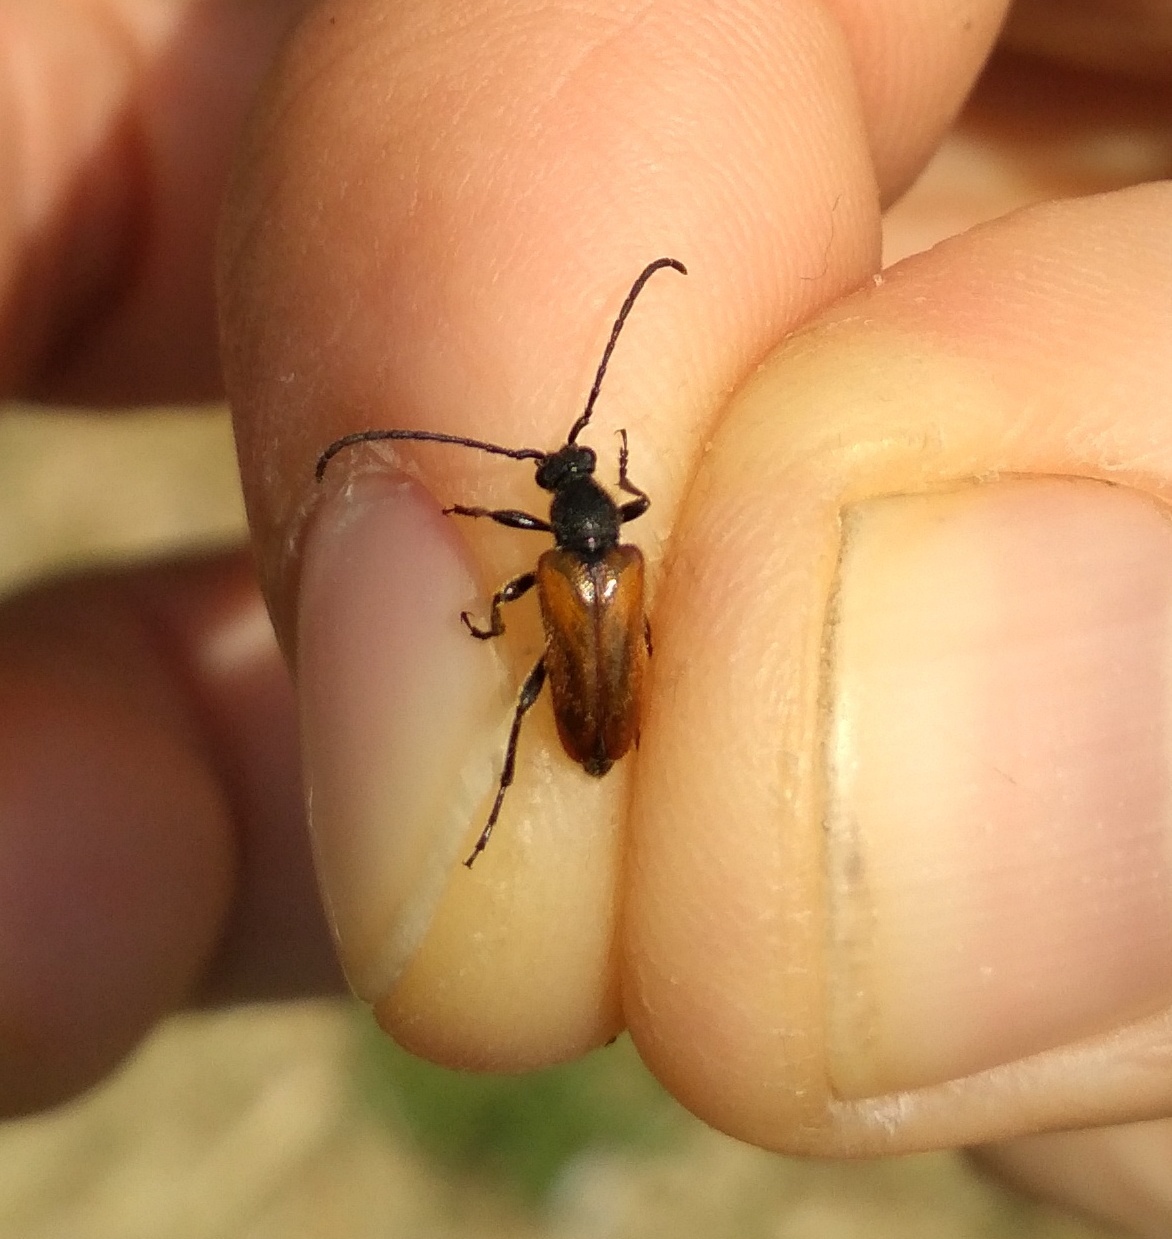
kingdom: Animalia
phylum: Arthropoda
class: Insecta
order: Coleoptera
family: Cerambycidae
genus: Pseudovadonia
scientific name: Pseudovadonia livida
